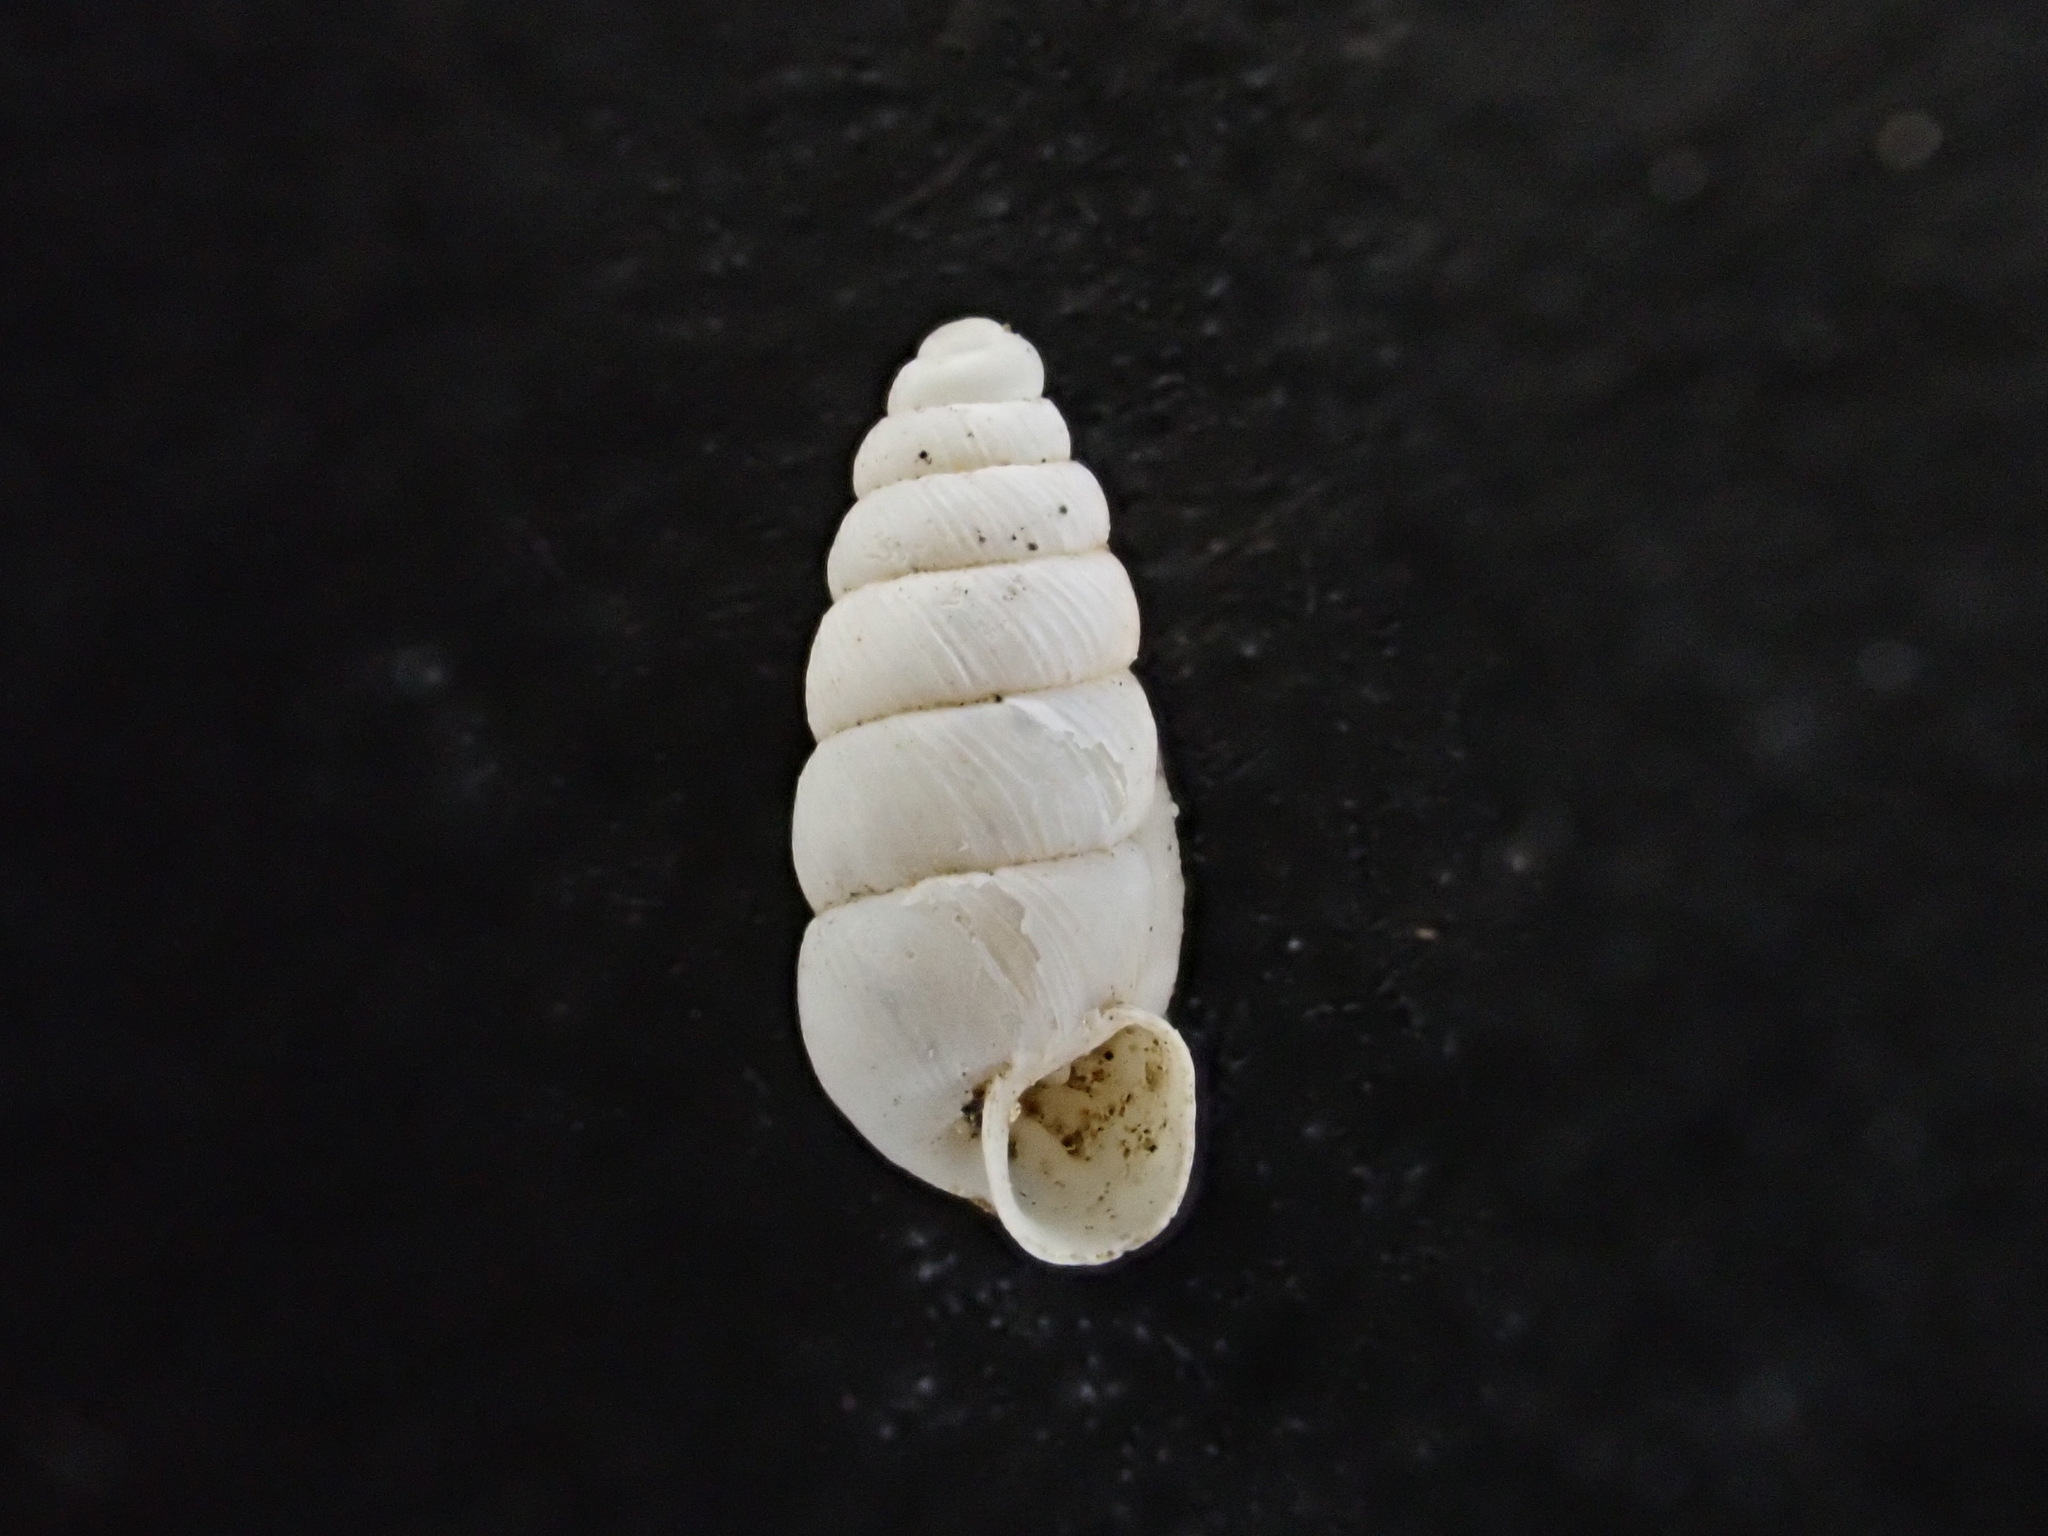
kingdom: Animalia
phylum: Mollusca
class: Gastropoda
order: Stylommatophora
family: Chondrinidae
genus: Granopupa
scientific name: Granopupa granum
